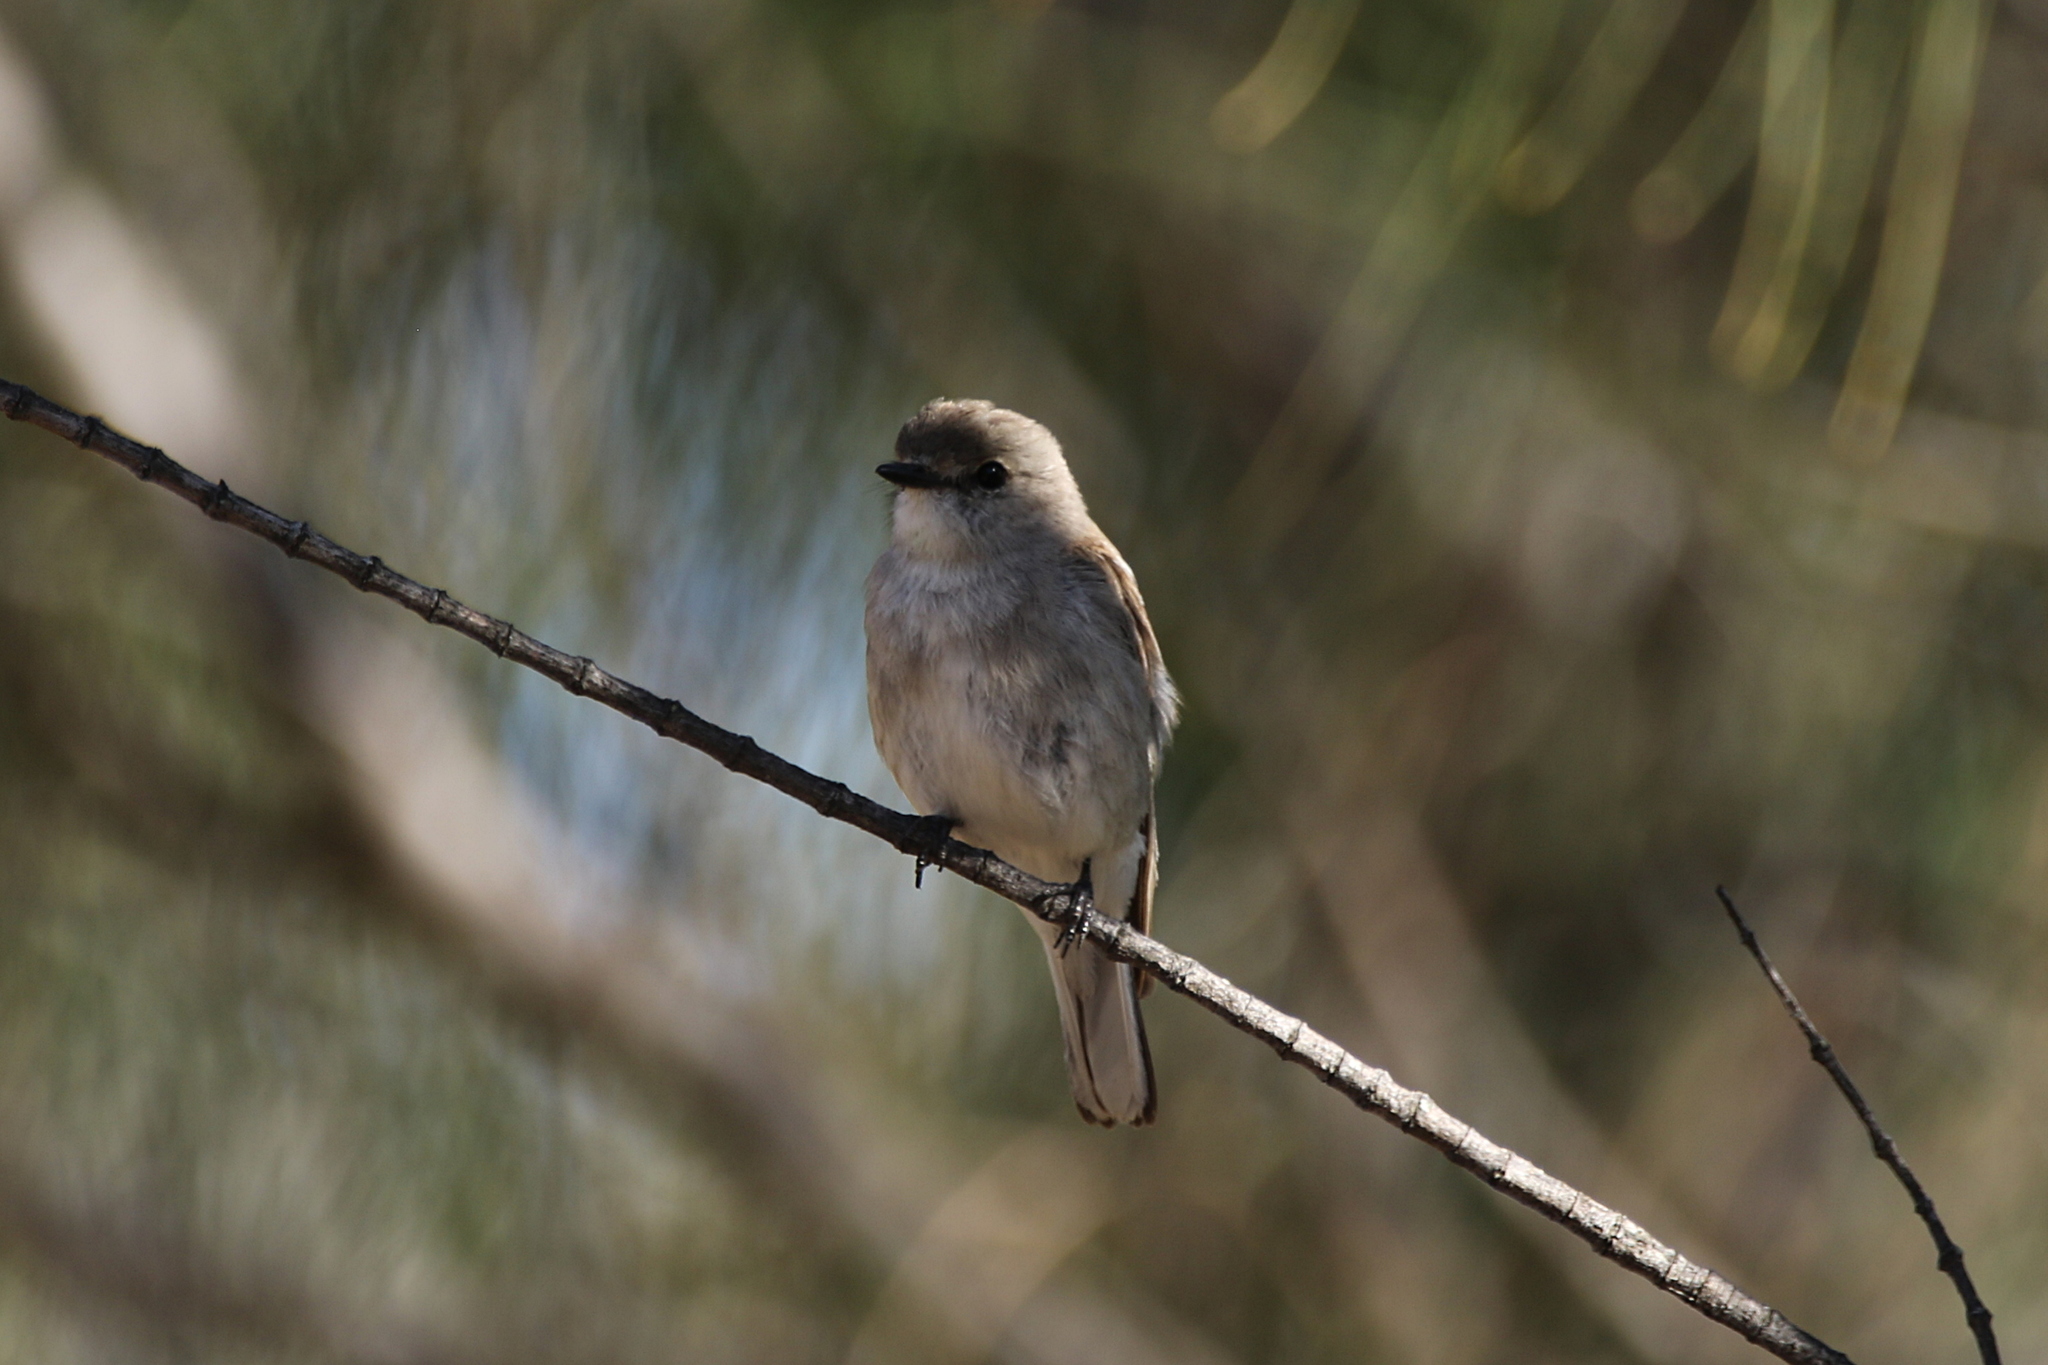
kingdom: Animalia
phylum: Chordata
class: Aves
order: Passeriformes
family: Petroicidae
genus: Microeca
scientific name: Microeca fascinans
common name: Jacky winter
